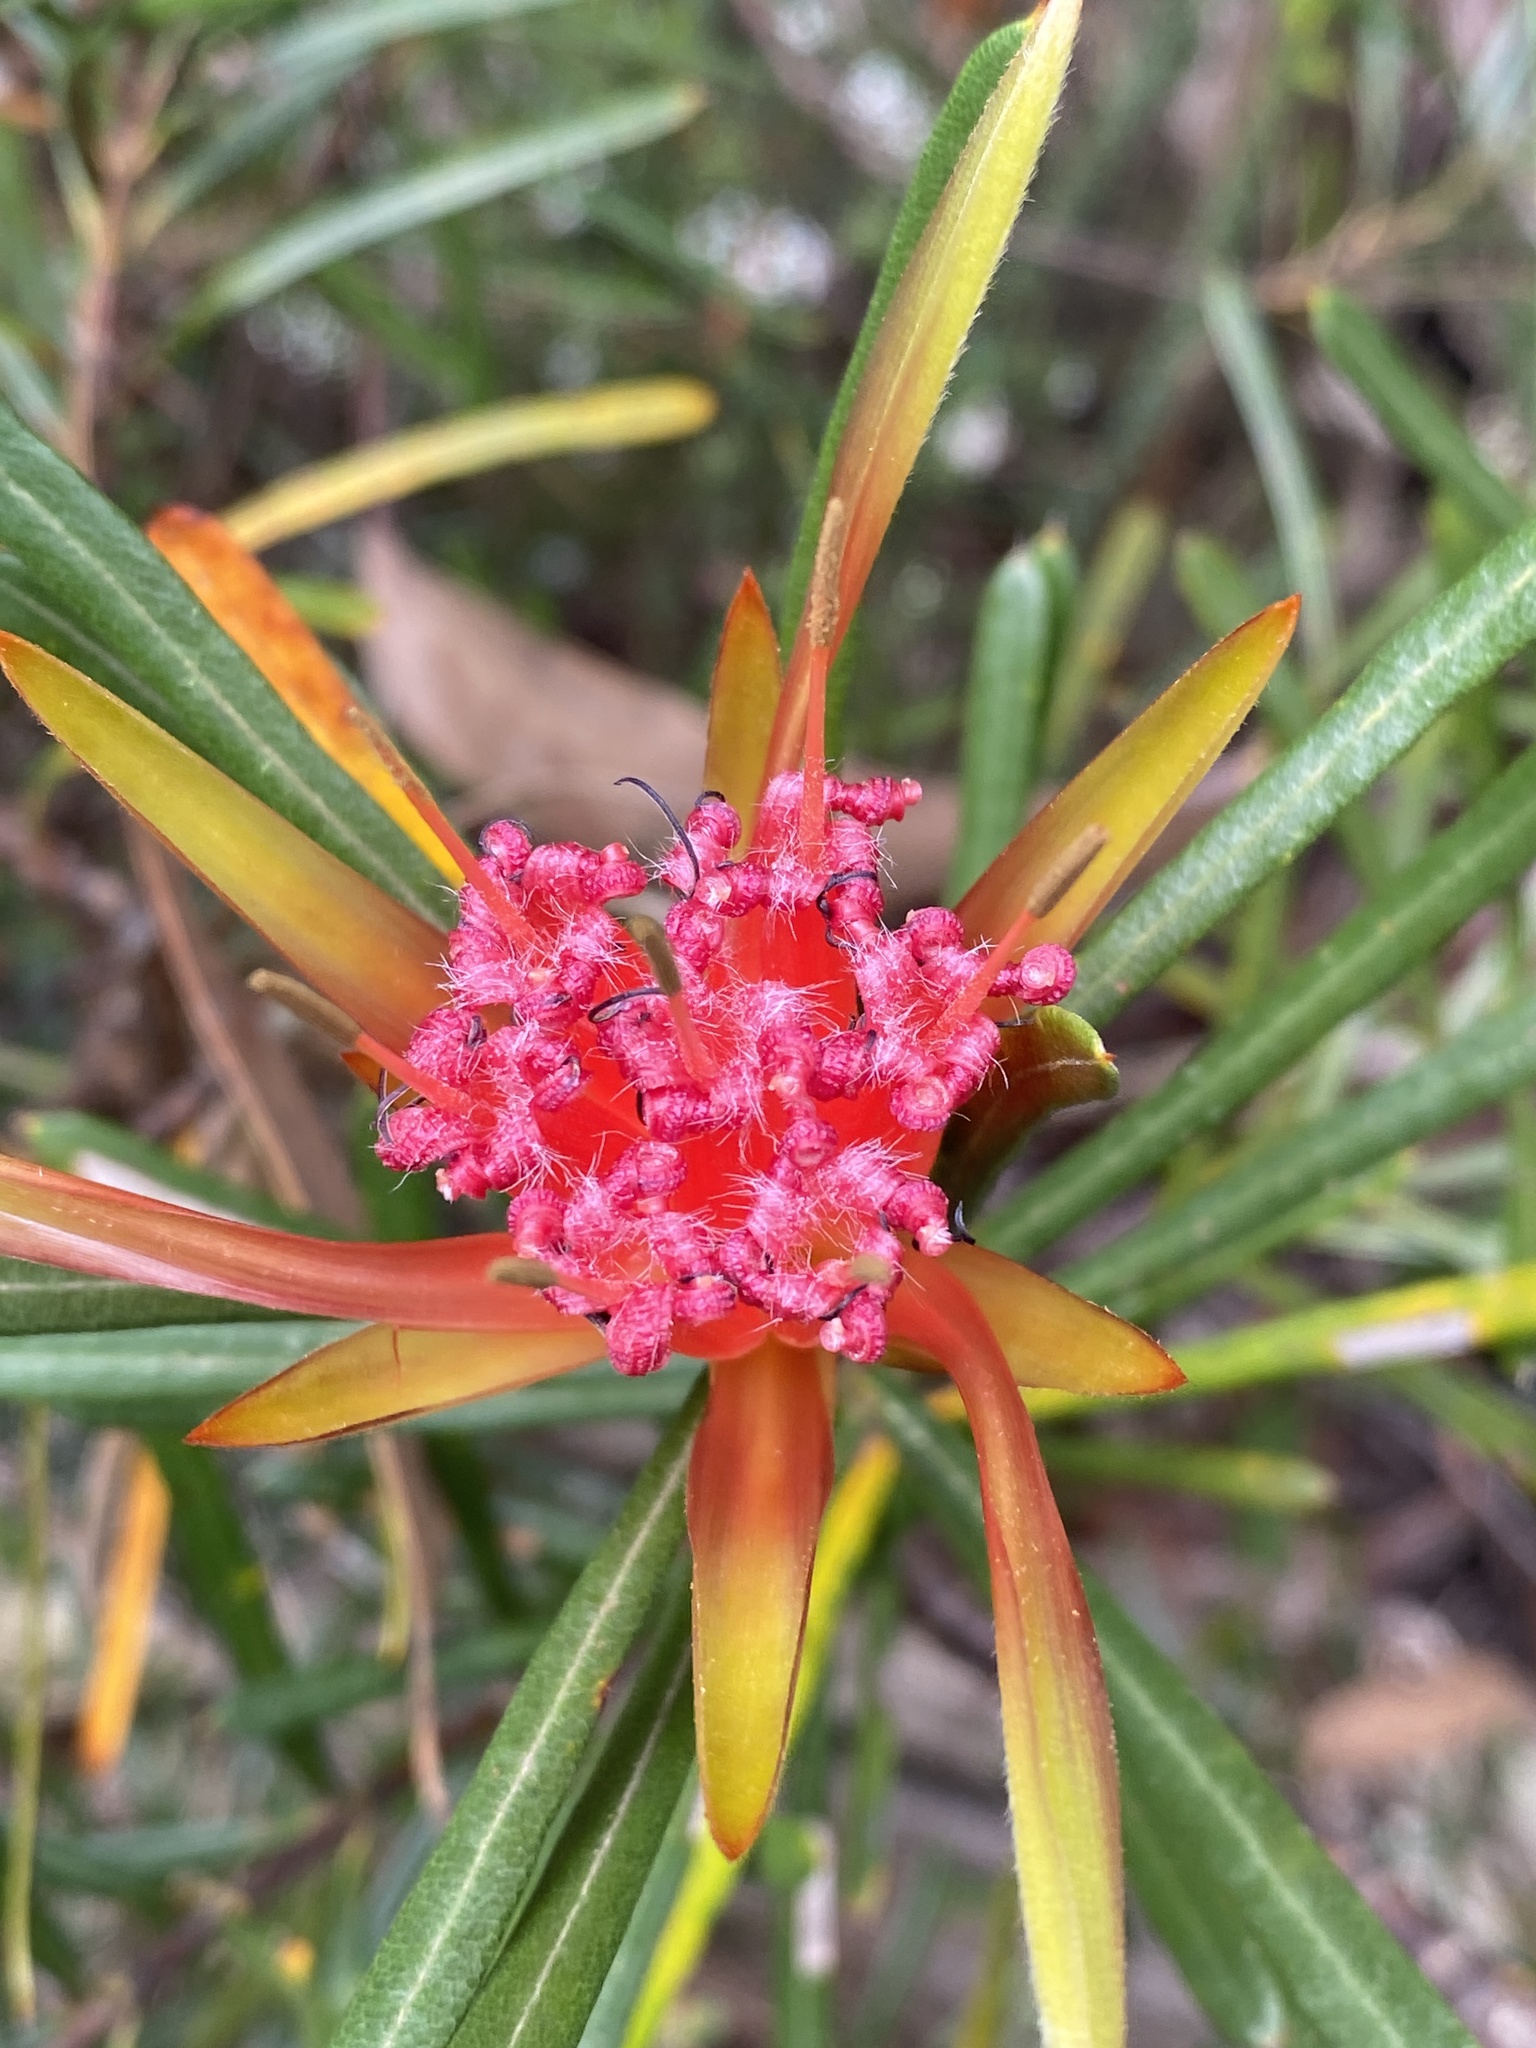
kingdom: Plantae
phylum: Tracheophyta
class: Magnoliopsida
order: Proteales
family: Proteaceae
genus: Lambertia
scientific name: Lambertia formosa
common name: Mountain-devil
